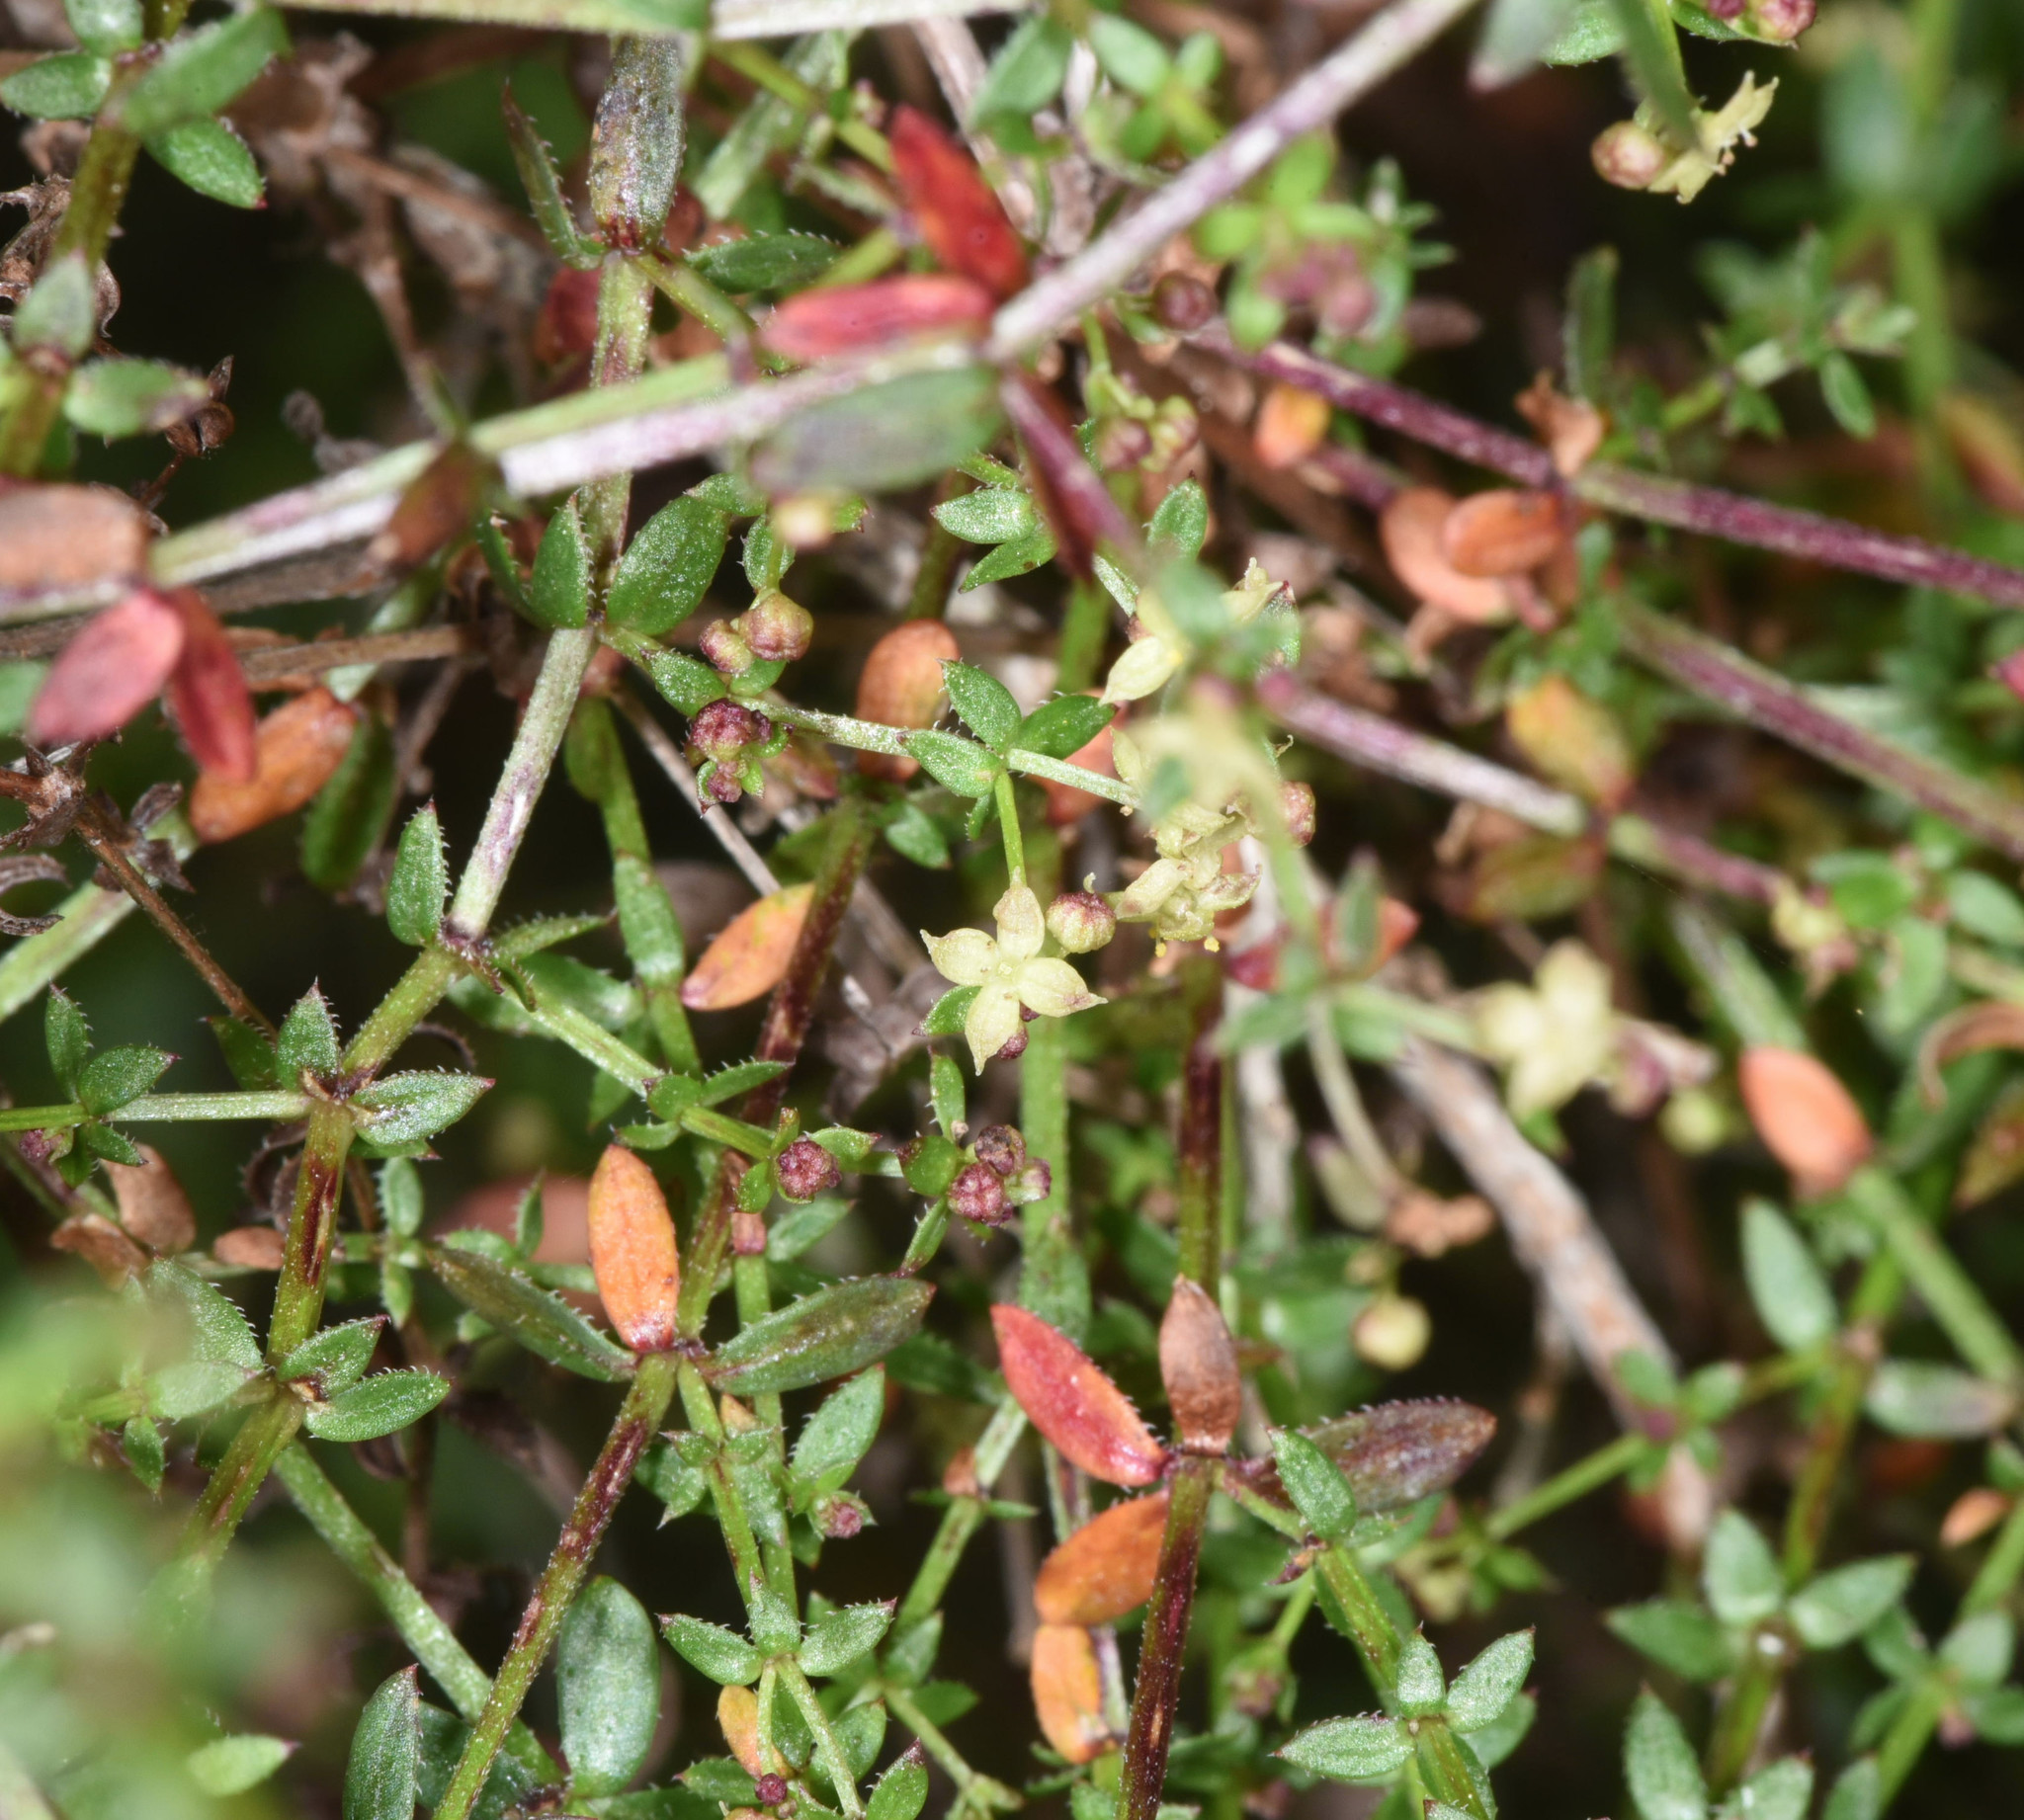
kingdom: Plantae
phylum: Tracheophyta
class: Magnoliopsida
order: Gentianales
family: Rubiaceae
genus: Galium
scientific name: Galium porrigens
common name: Climbing bedstraw
